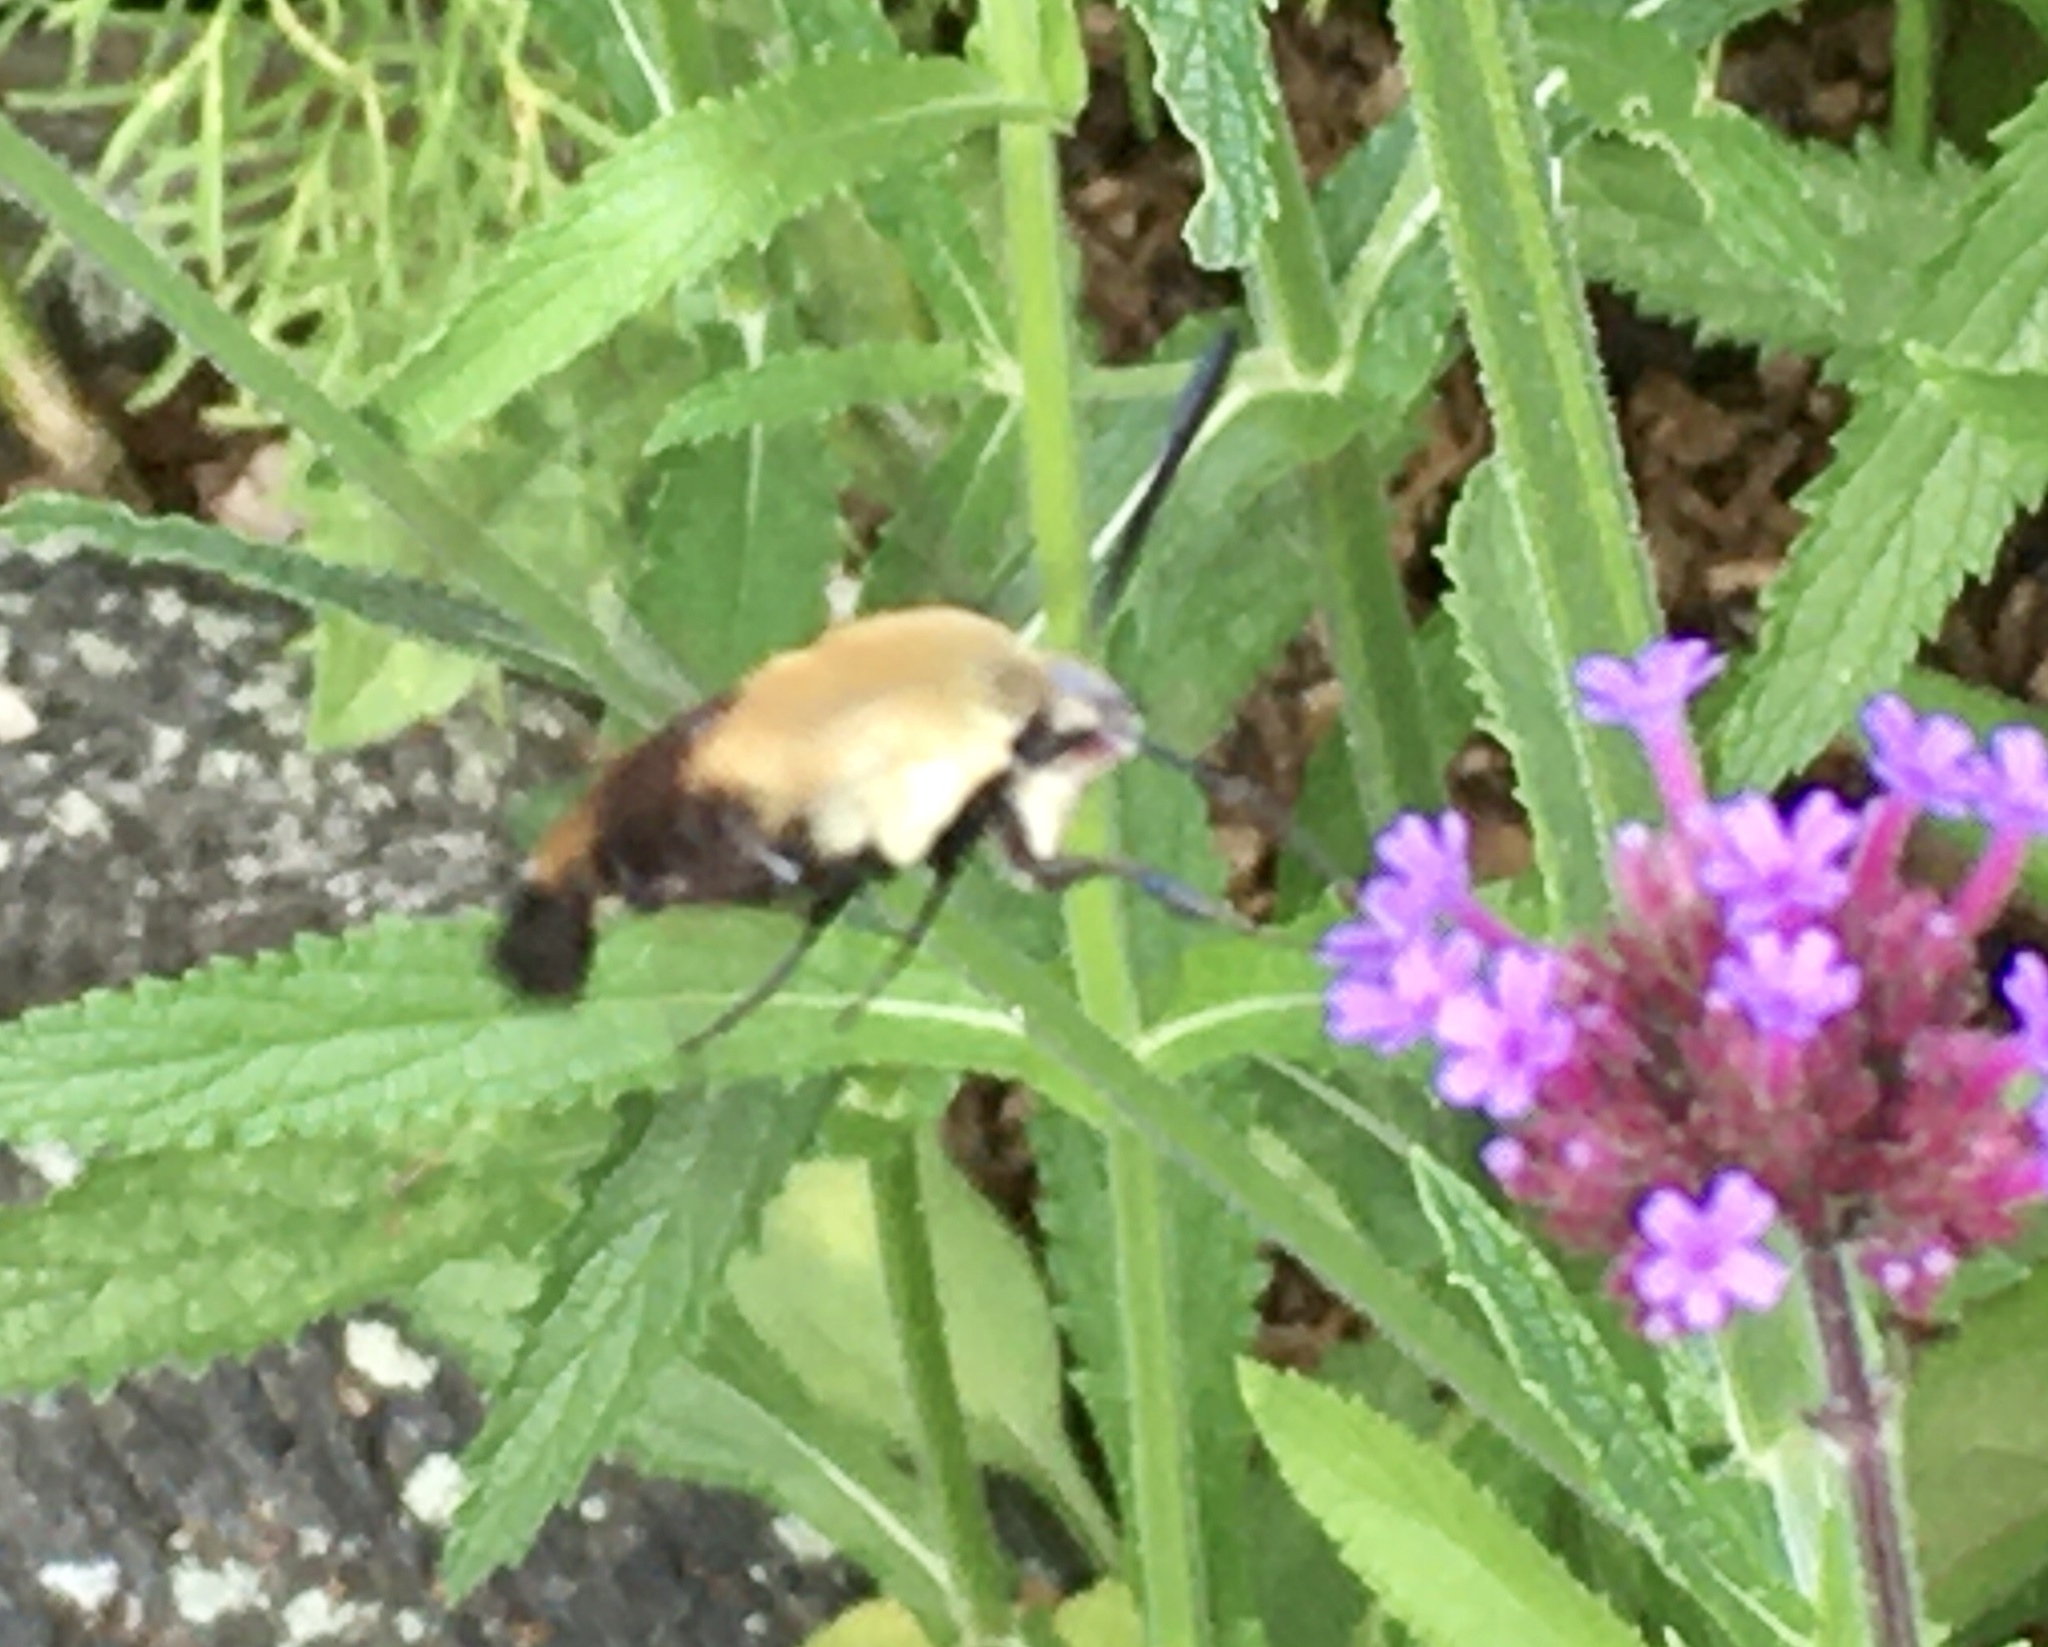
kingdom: Animalia
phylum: Arthropoda
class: Insecta
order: Lepidoptera
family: Sphingidae
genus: Hemaris
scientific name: Hemaris diffinis
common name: Bumblebee moth
